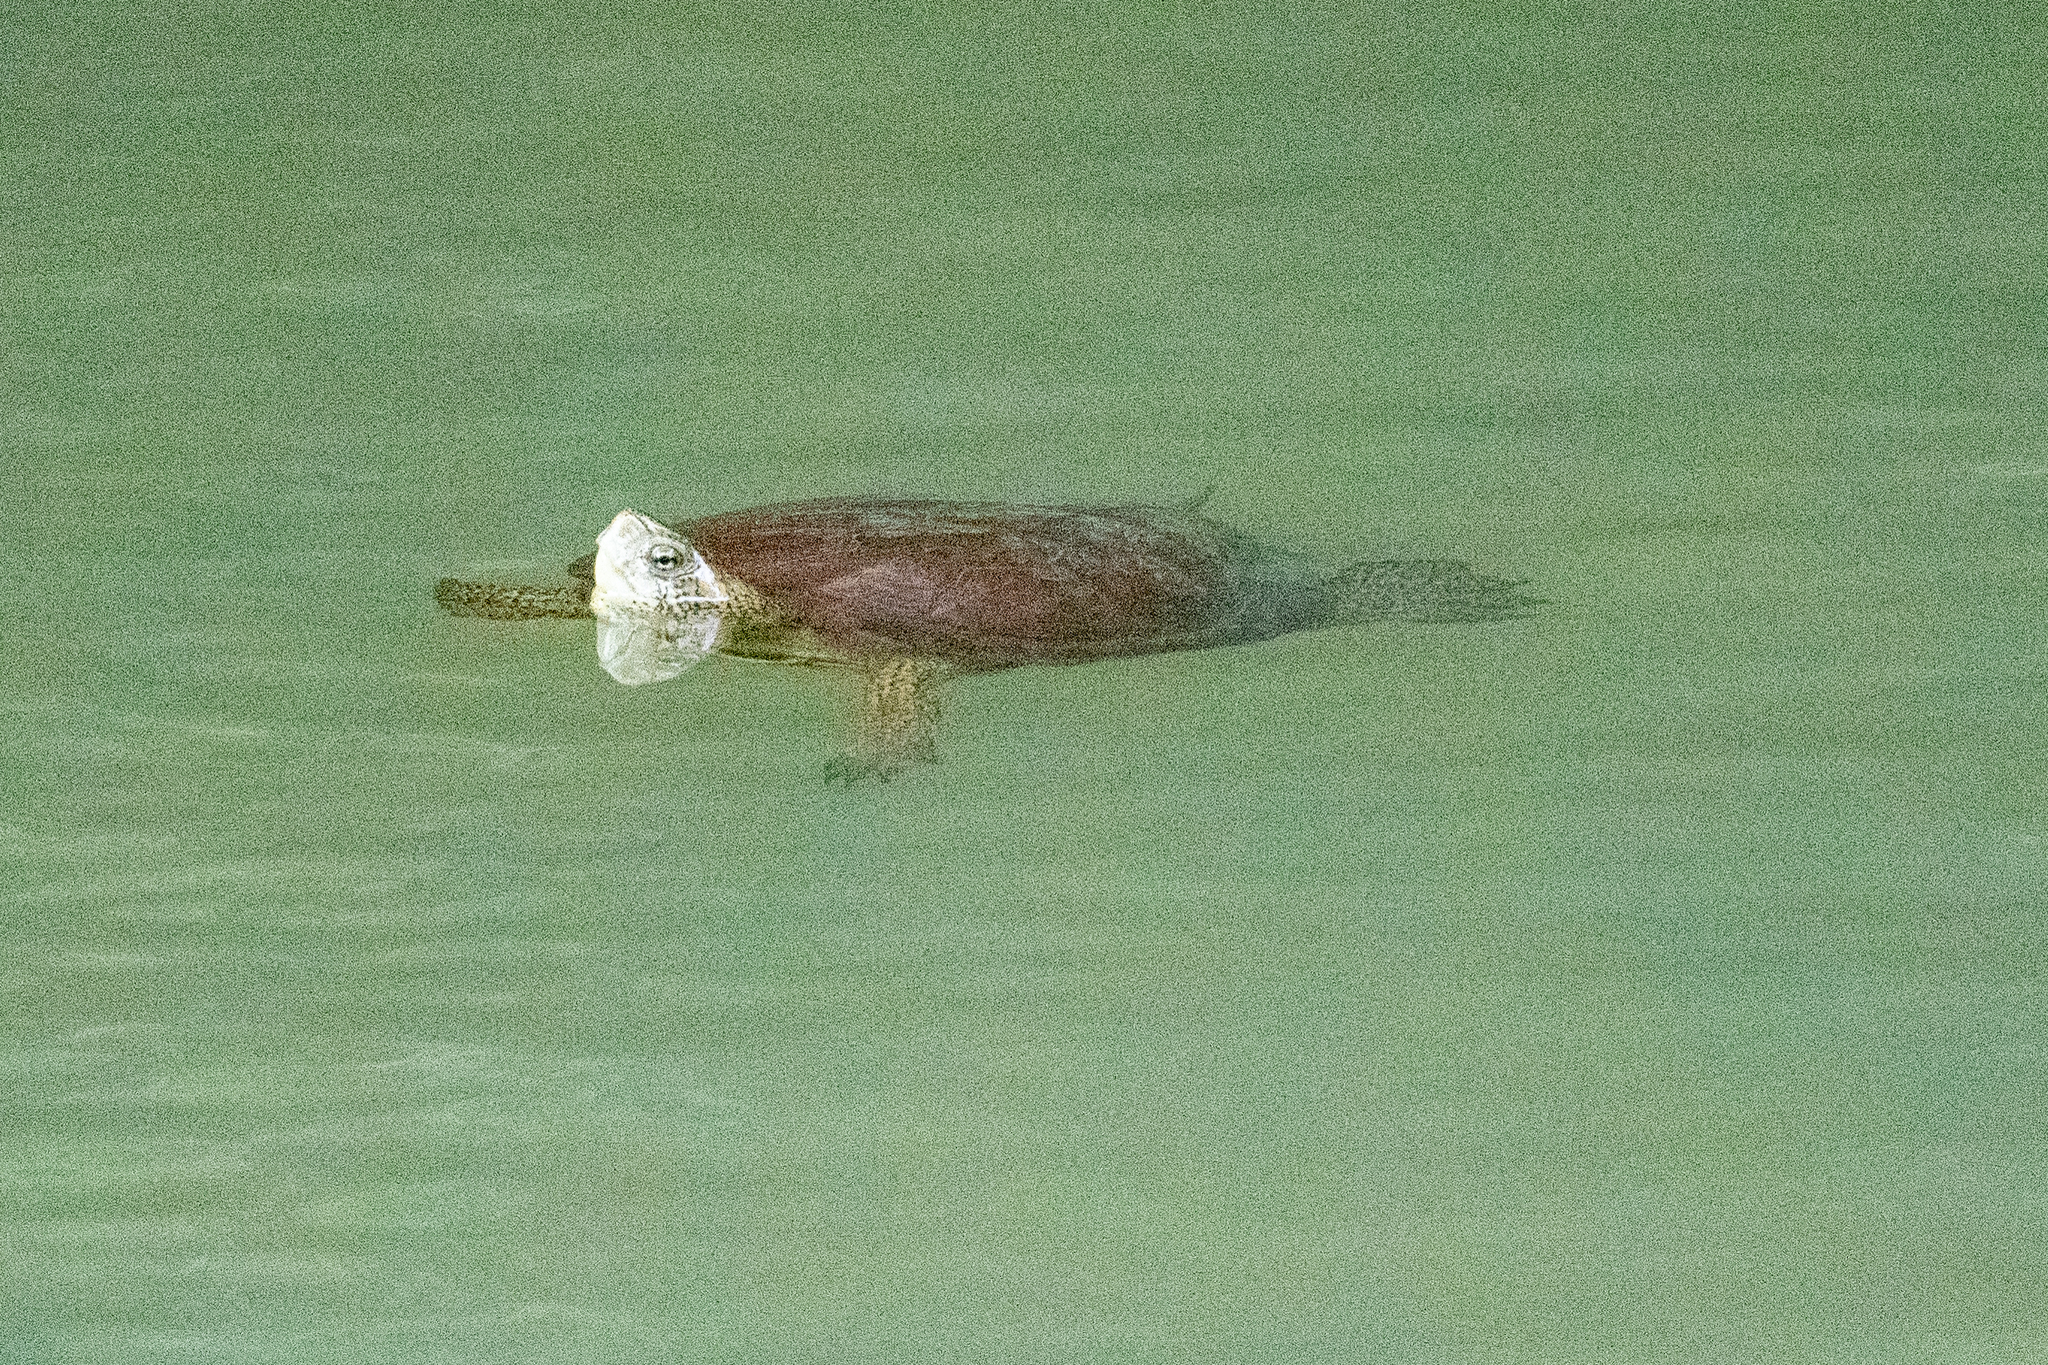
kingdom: Animalia
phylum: Chordata
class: Testudines
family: Emydidae
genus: Actinemys
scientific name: Actinemys marmorata
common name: Western pond turtle
